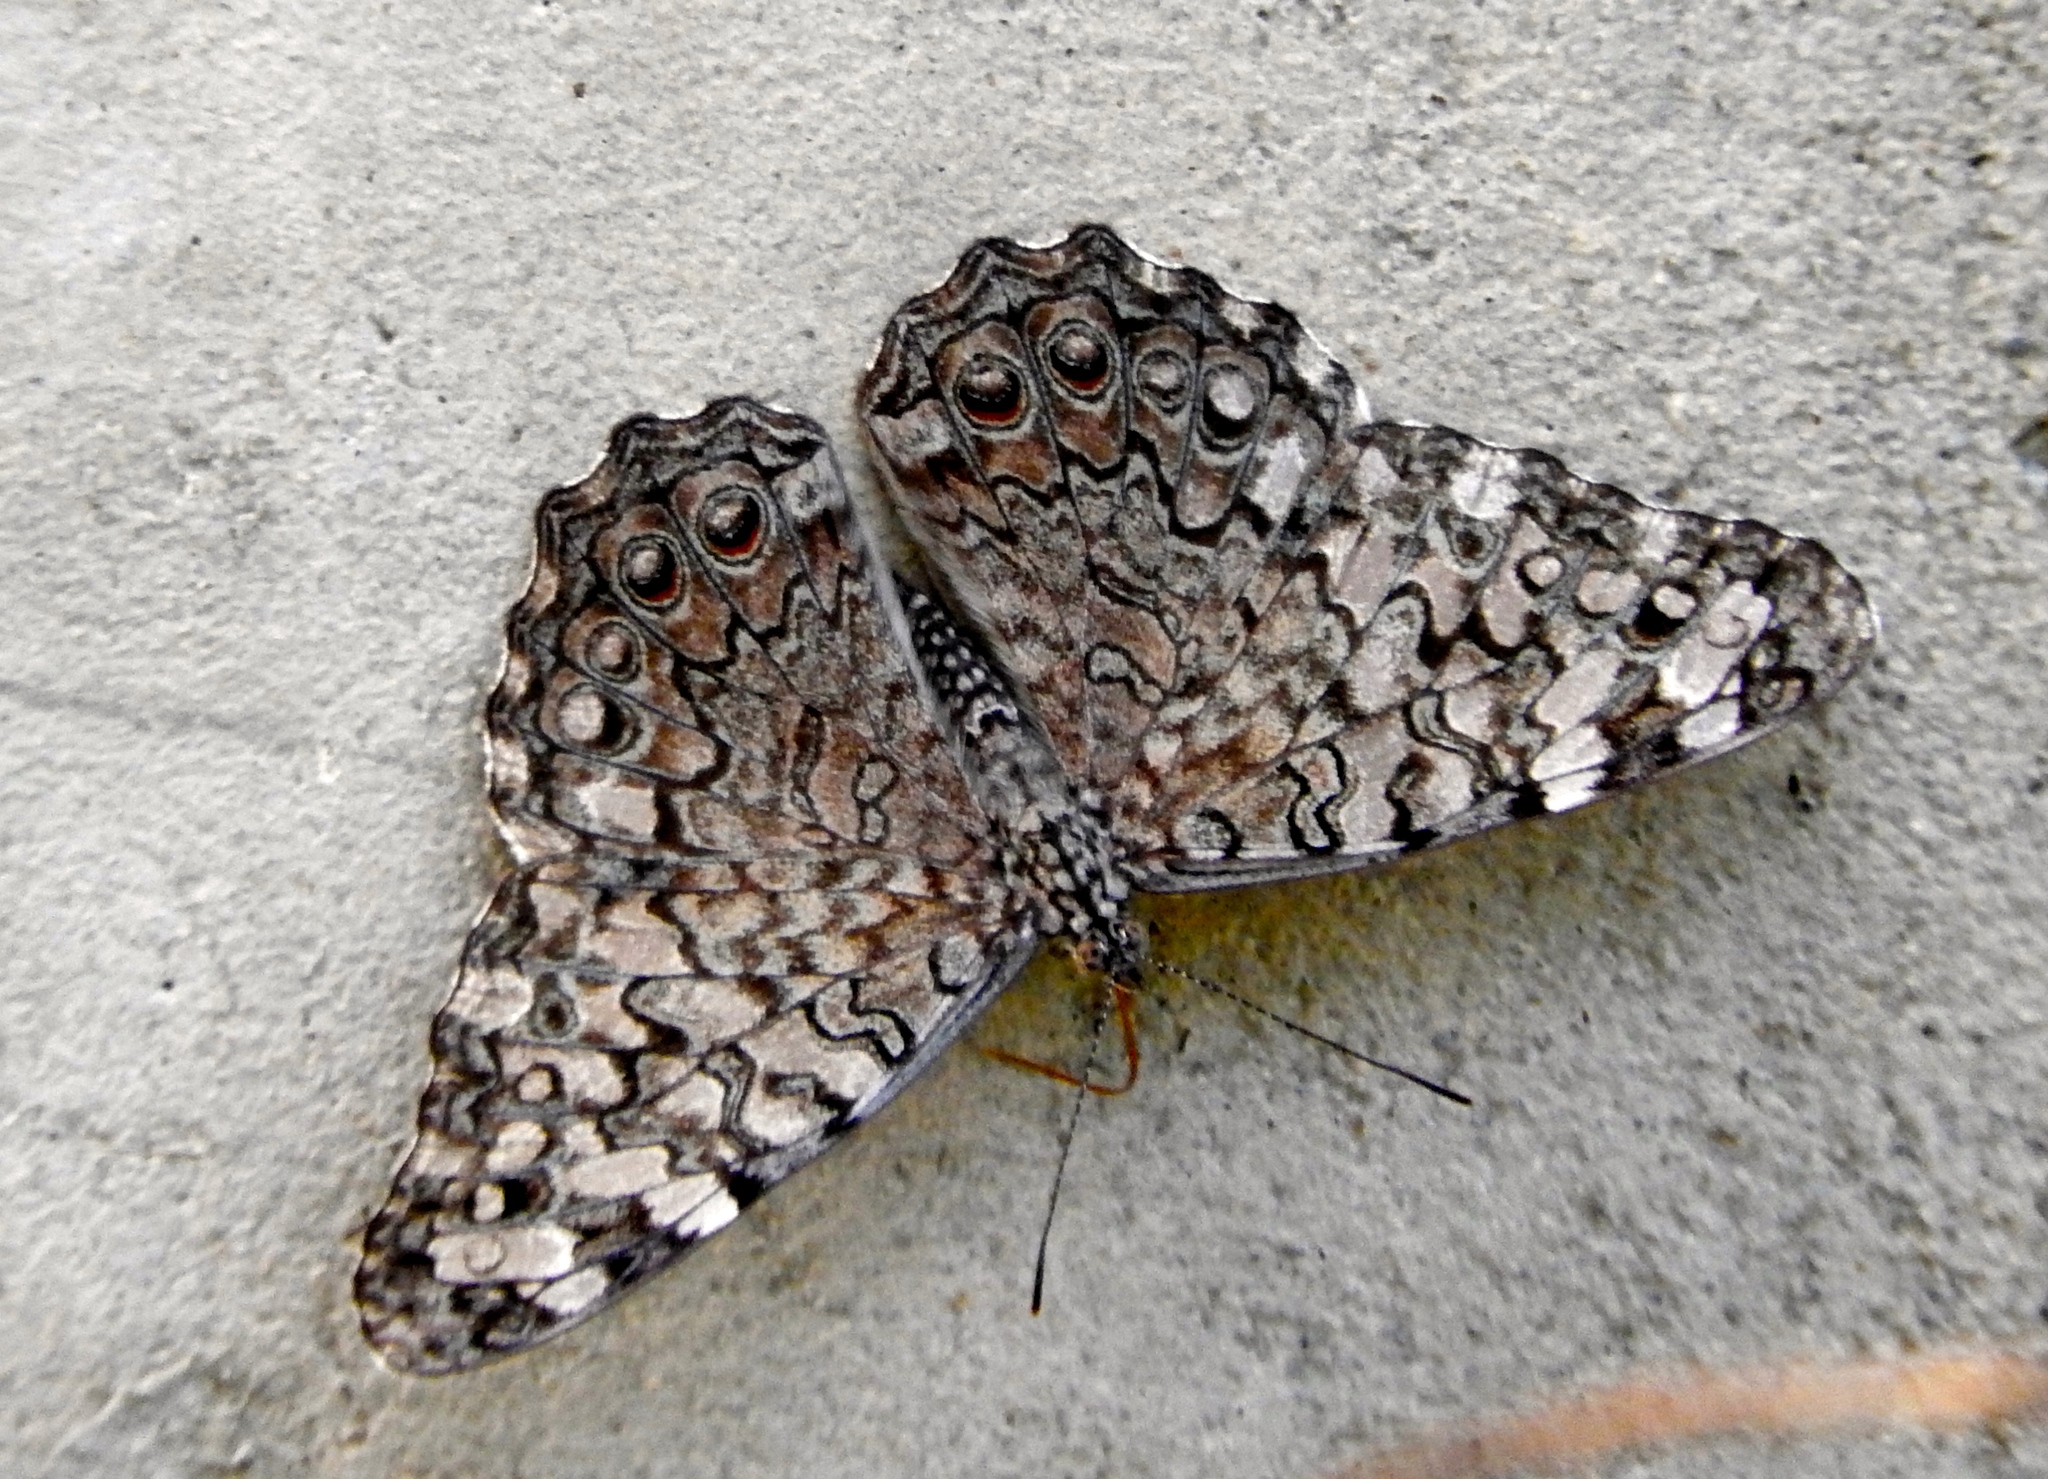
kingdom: Animalia
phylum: Arthropoda
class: Insecta
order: Lepidoptera
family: Nymphalidae
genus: Hamadryas
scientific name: Hamadryas februa
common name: Gray cracker
